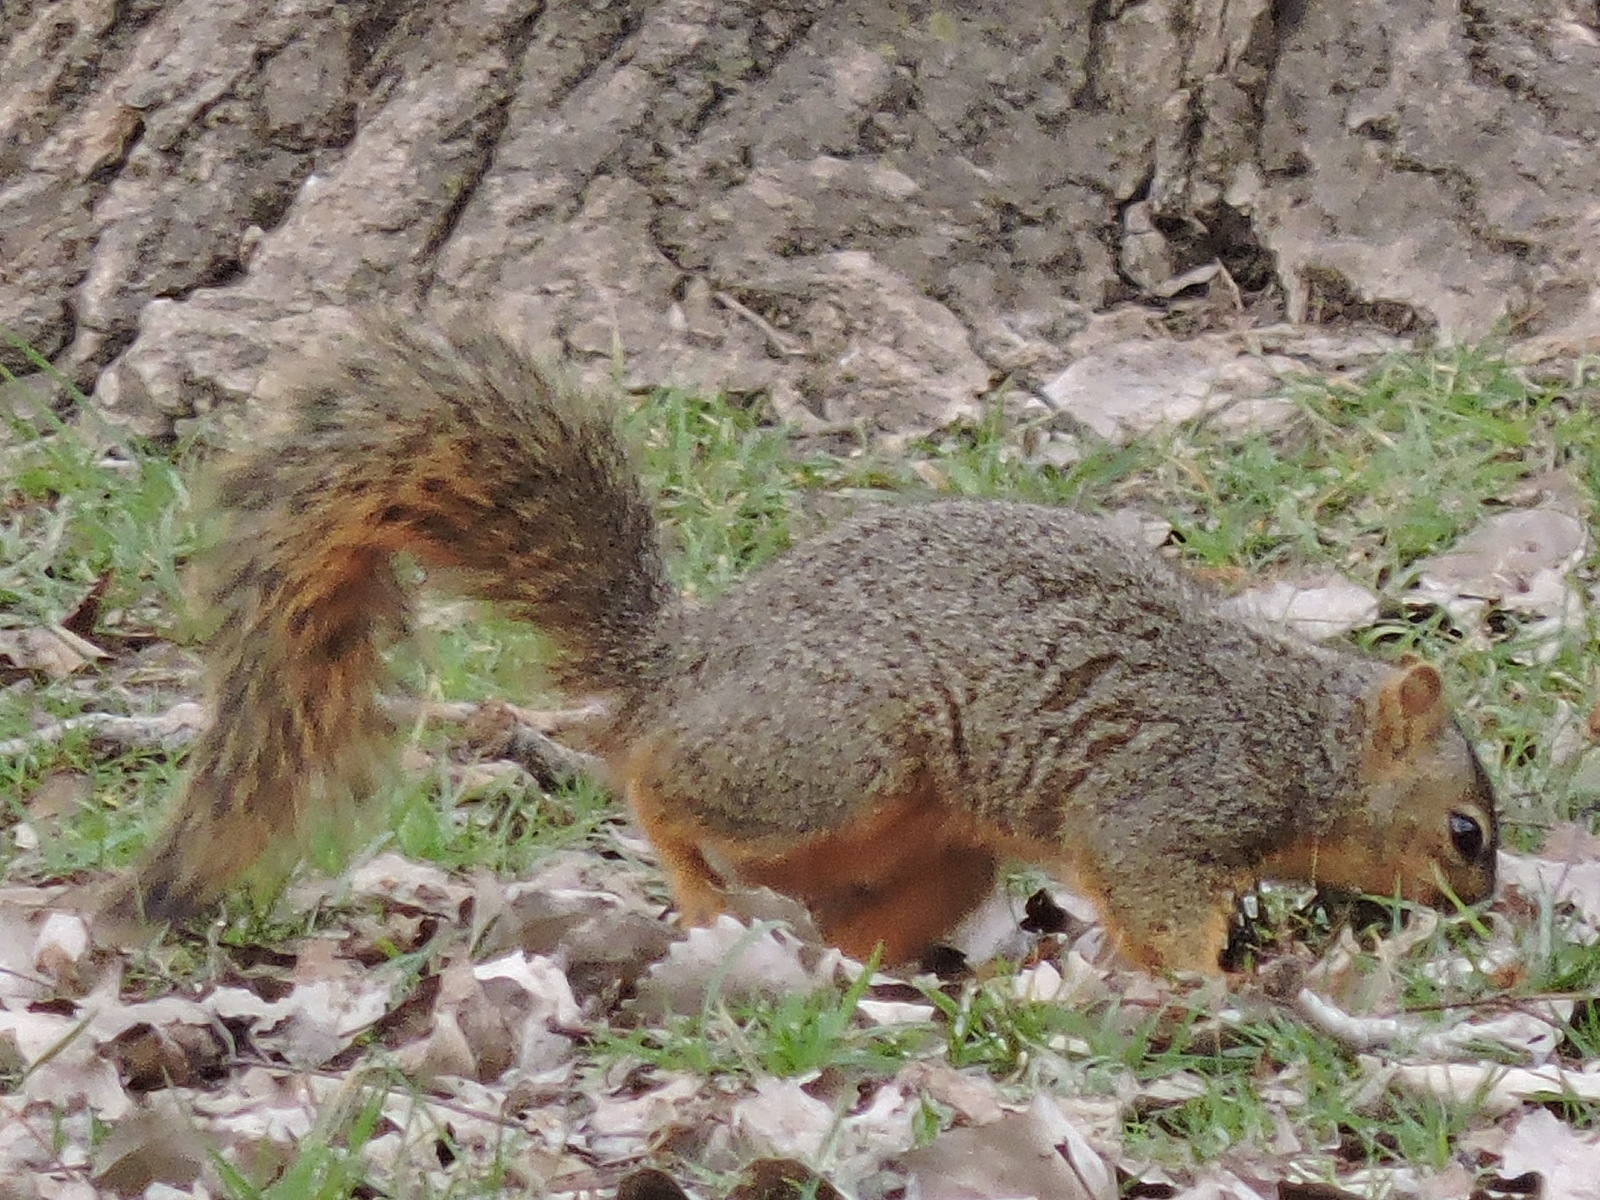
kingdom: Animalia
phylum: Chordata
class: Mammalia
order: Rodentia
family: Sciuridae
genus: Sciurus
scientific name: Sciurus niger
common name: Fox squirrel
